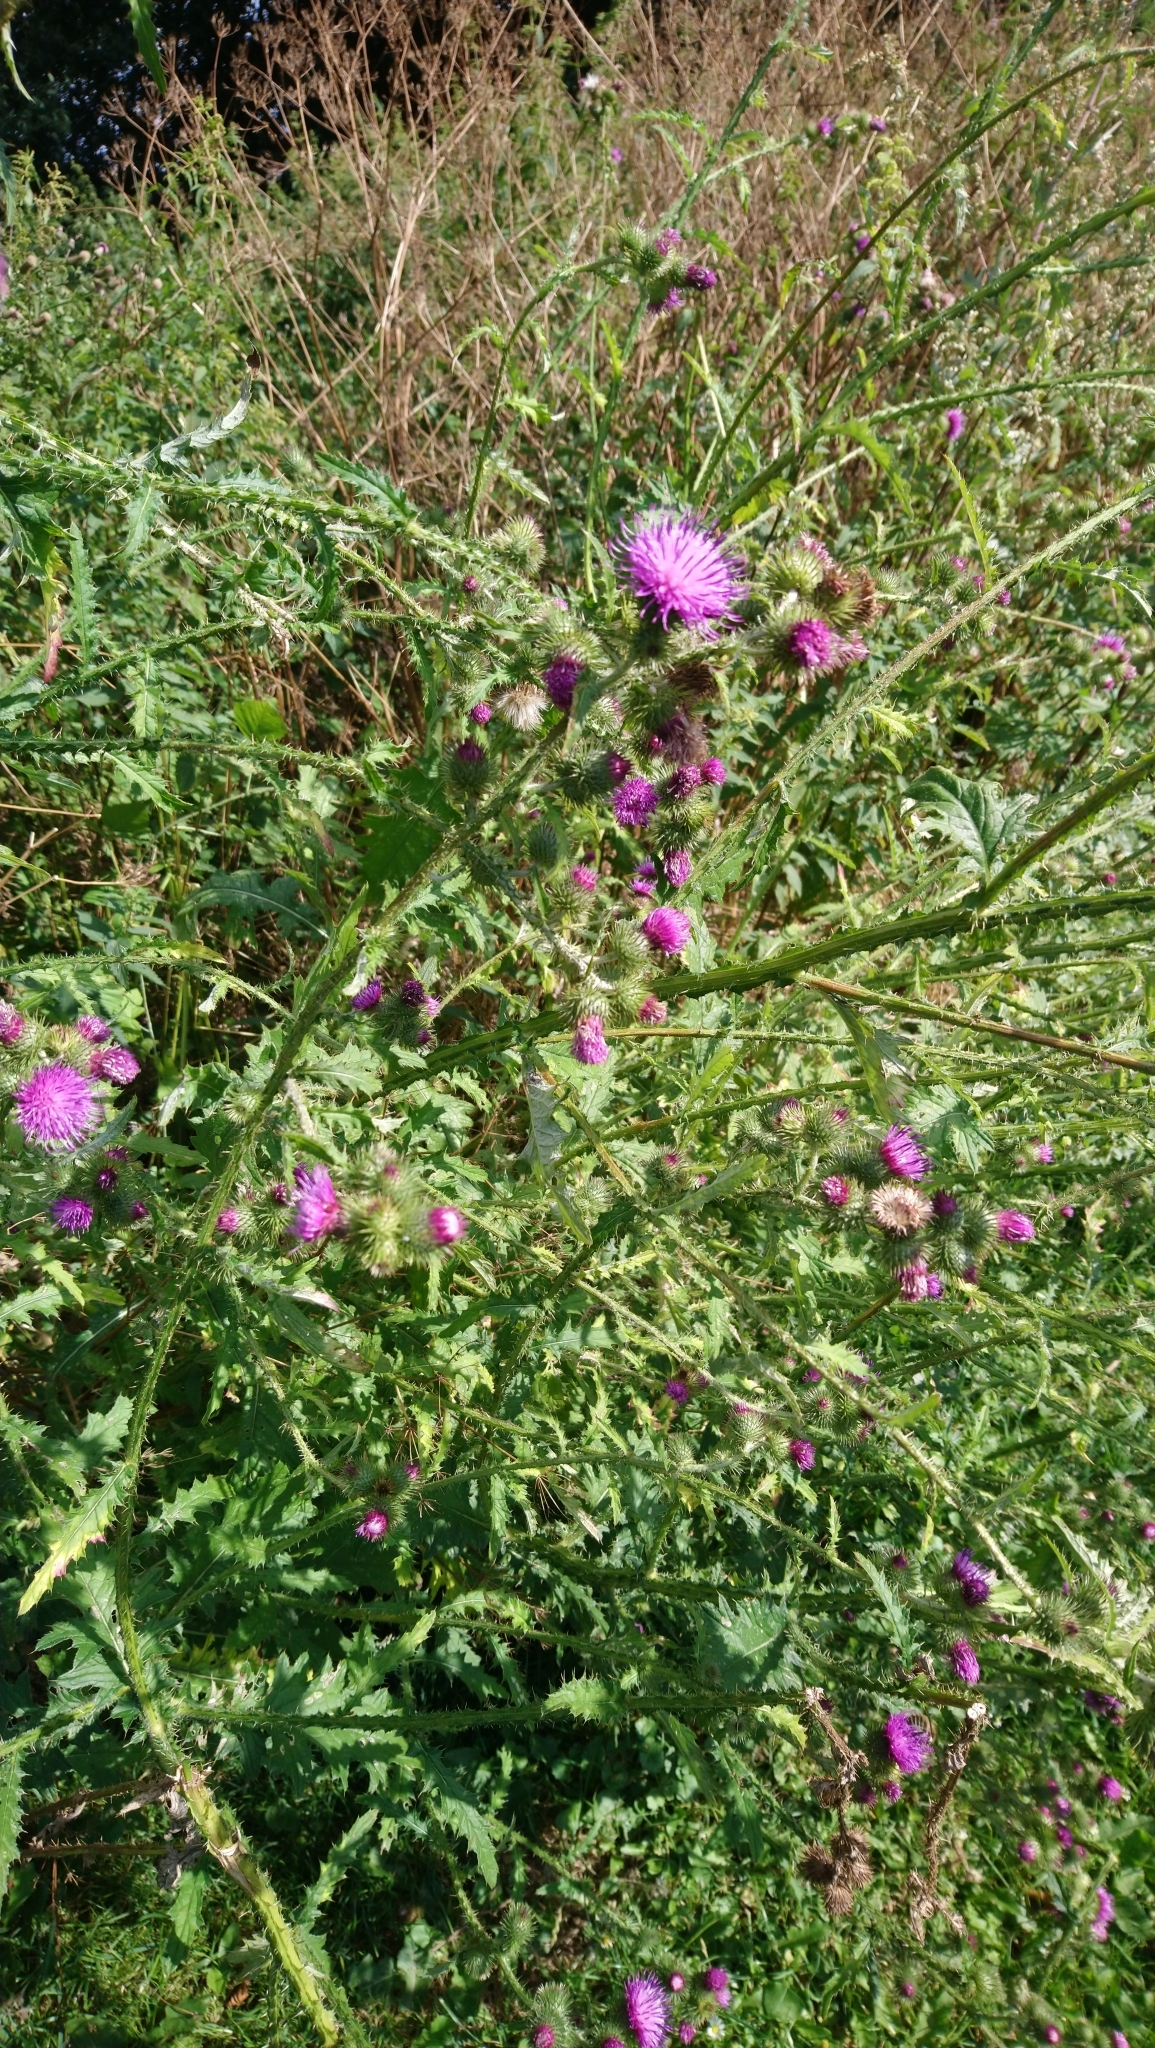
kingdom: Plantae
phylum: Tracheophyta
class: Magnoliopsida
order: Asterales
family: Asteraceae
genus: Carduus
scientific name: Carduus crispus
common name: Welted thistle
